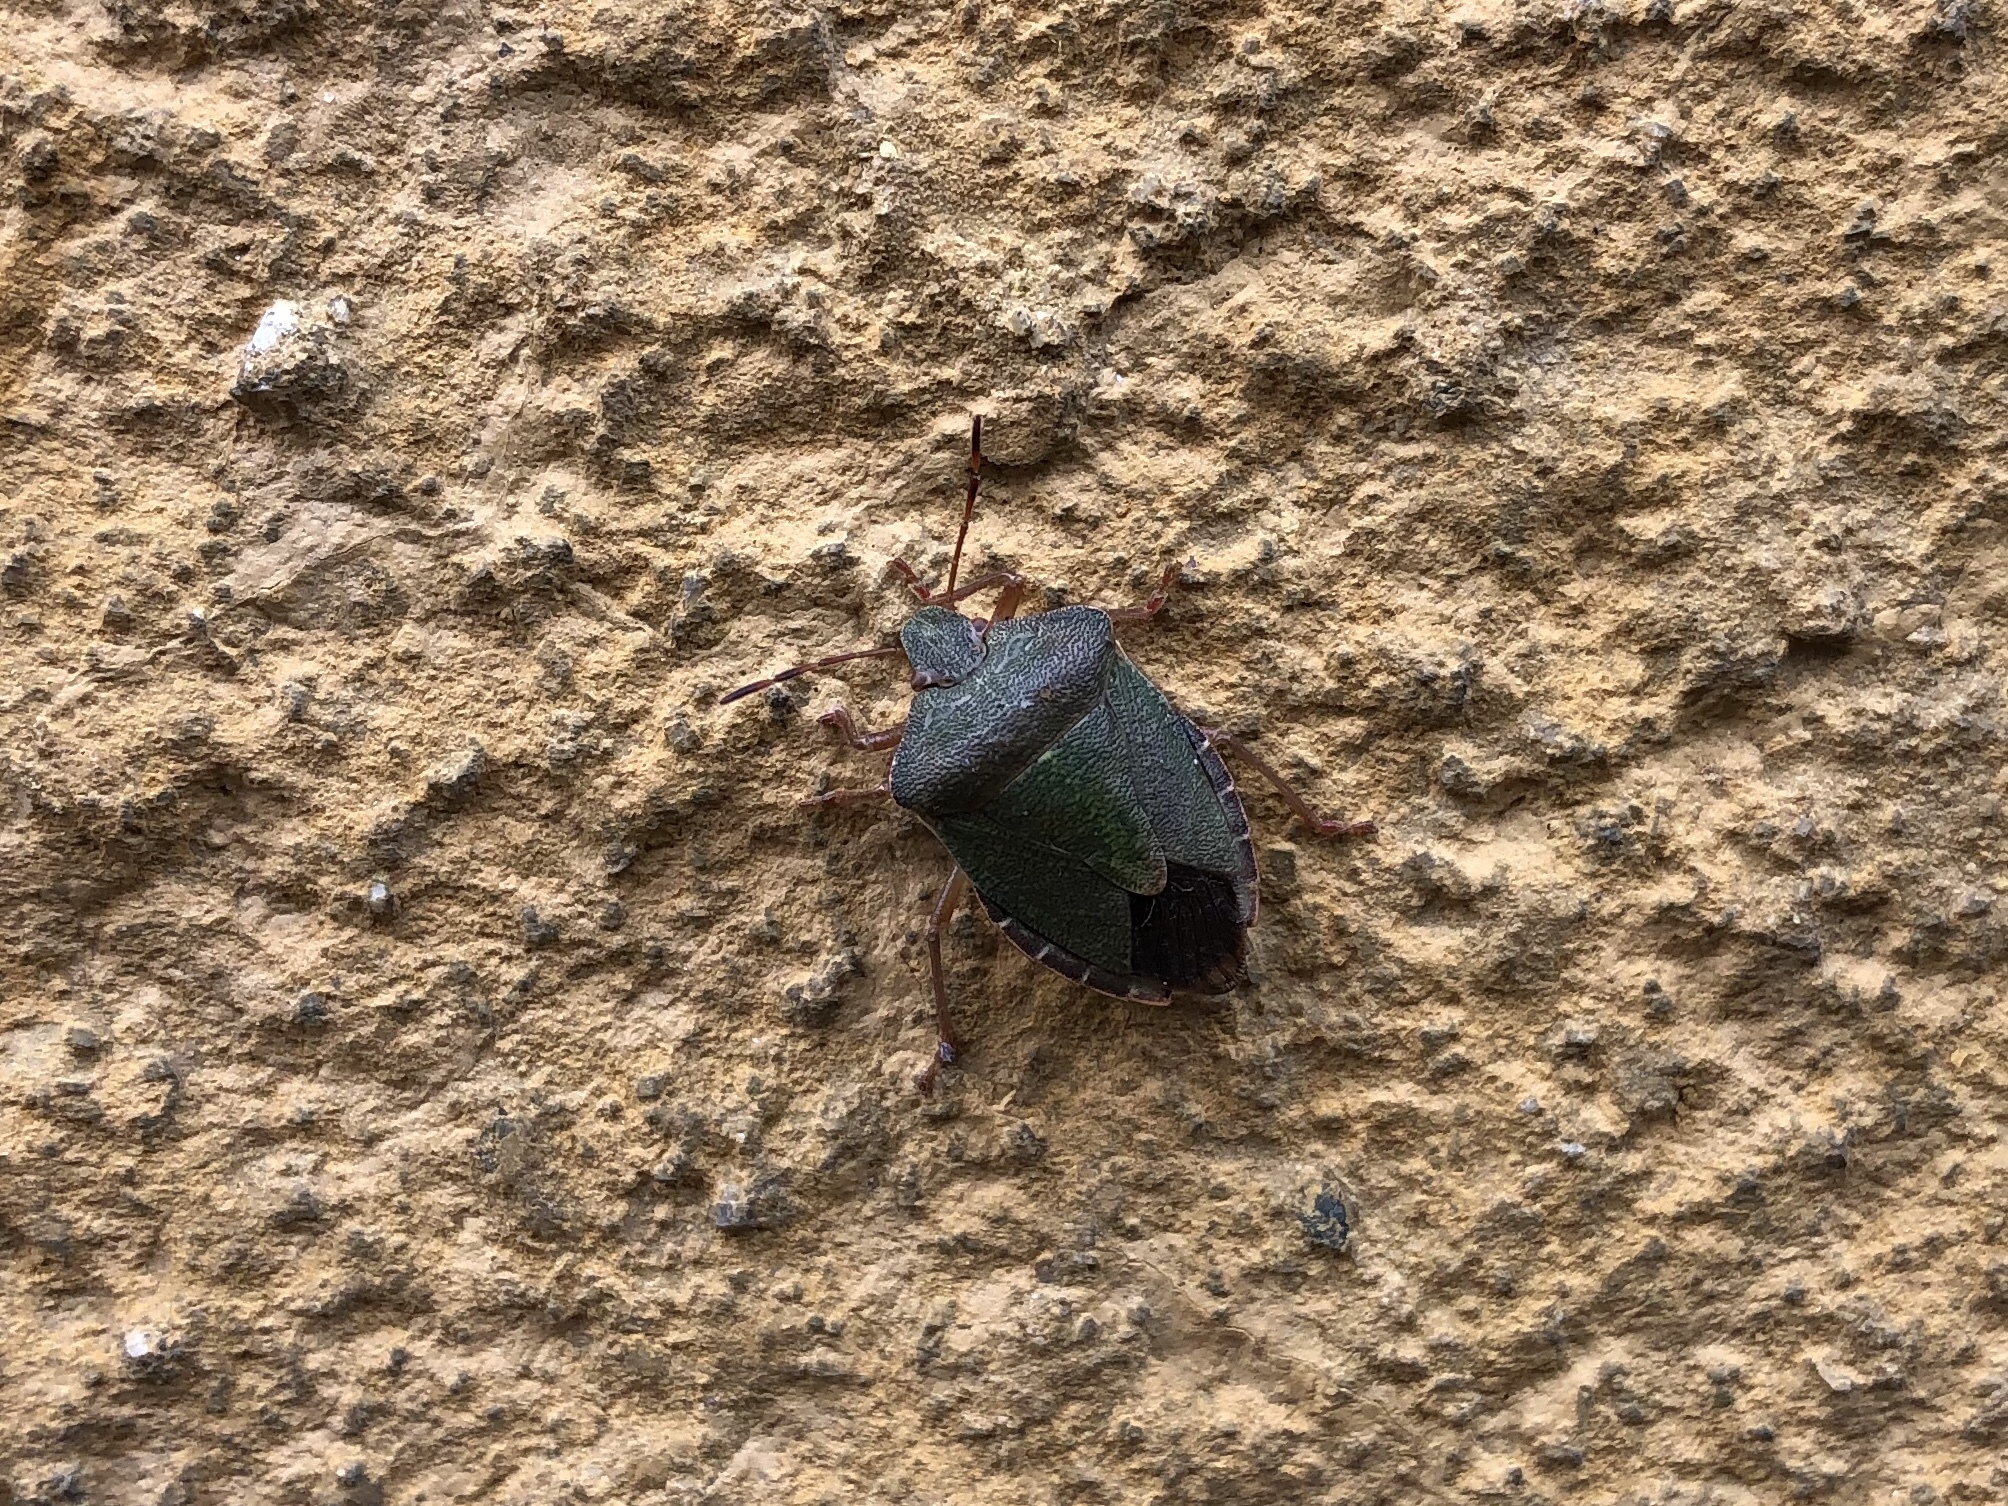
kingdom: Animalia
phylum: Arthropoda
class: Insecta
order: Hemiptera
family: Pentatomidae
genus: Palomena
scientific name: Palomena prasina
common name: Green shieldbug
